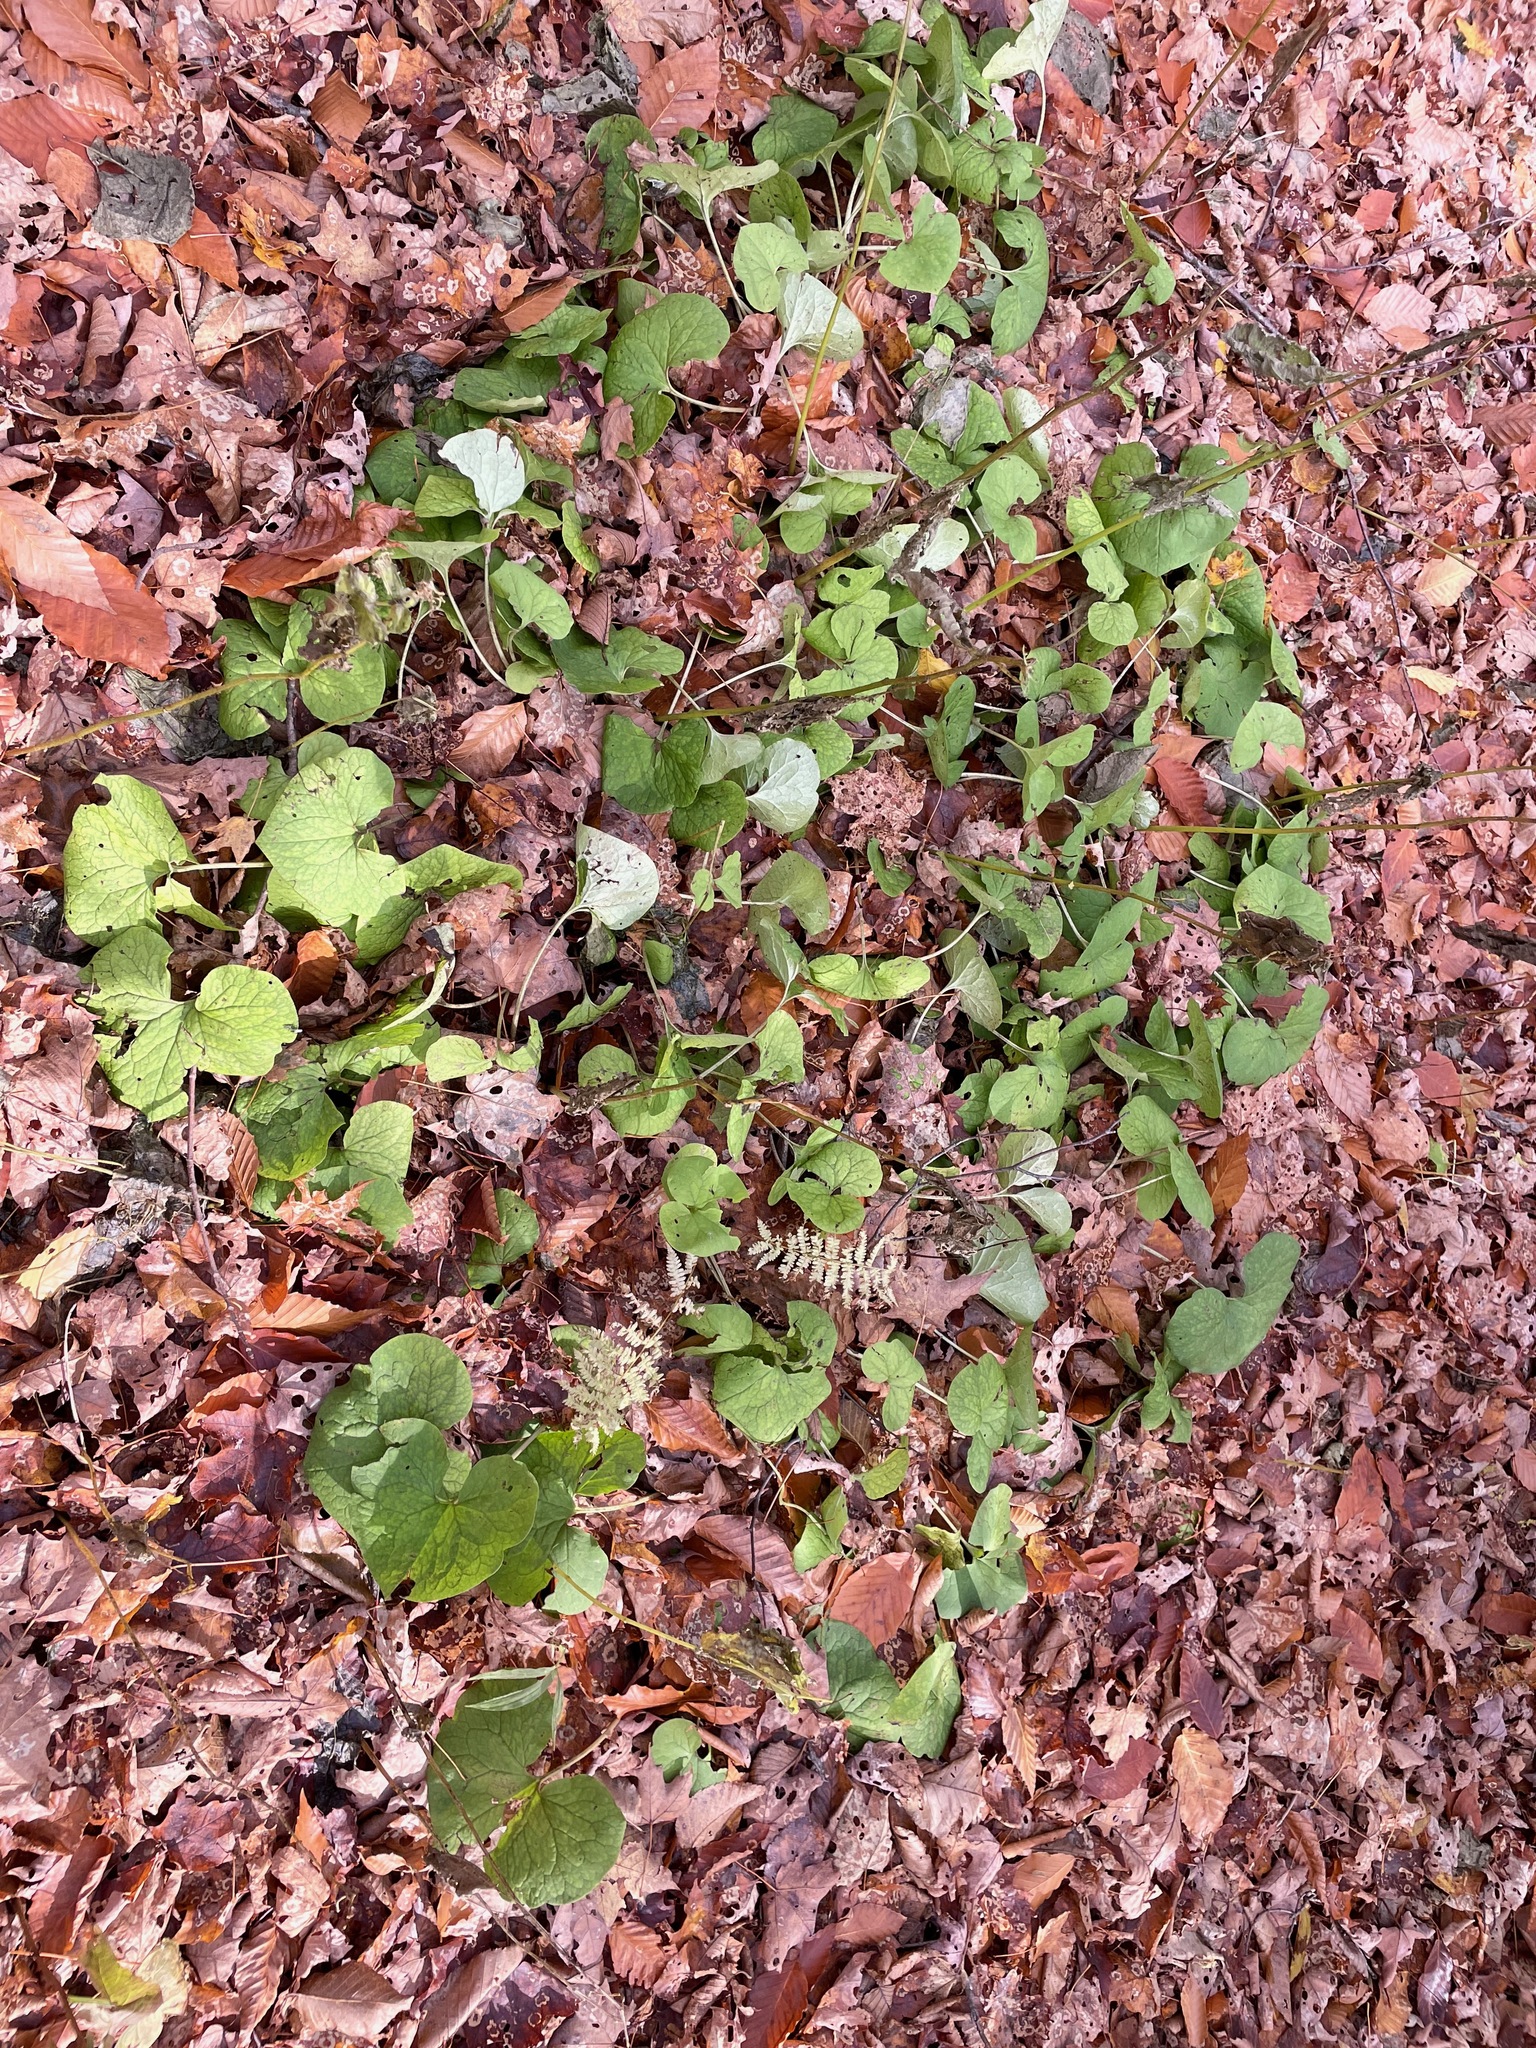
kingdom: Plantae
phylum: Tracheophyta
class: Magnoliopsida
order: Piperales
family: Aristolochiaceae
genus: Asarum
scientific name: Asarum canadense
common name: Wild ginger
